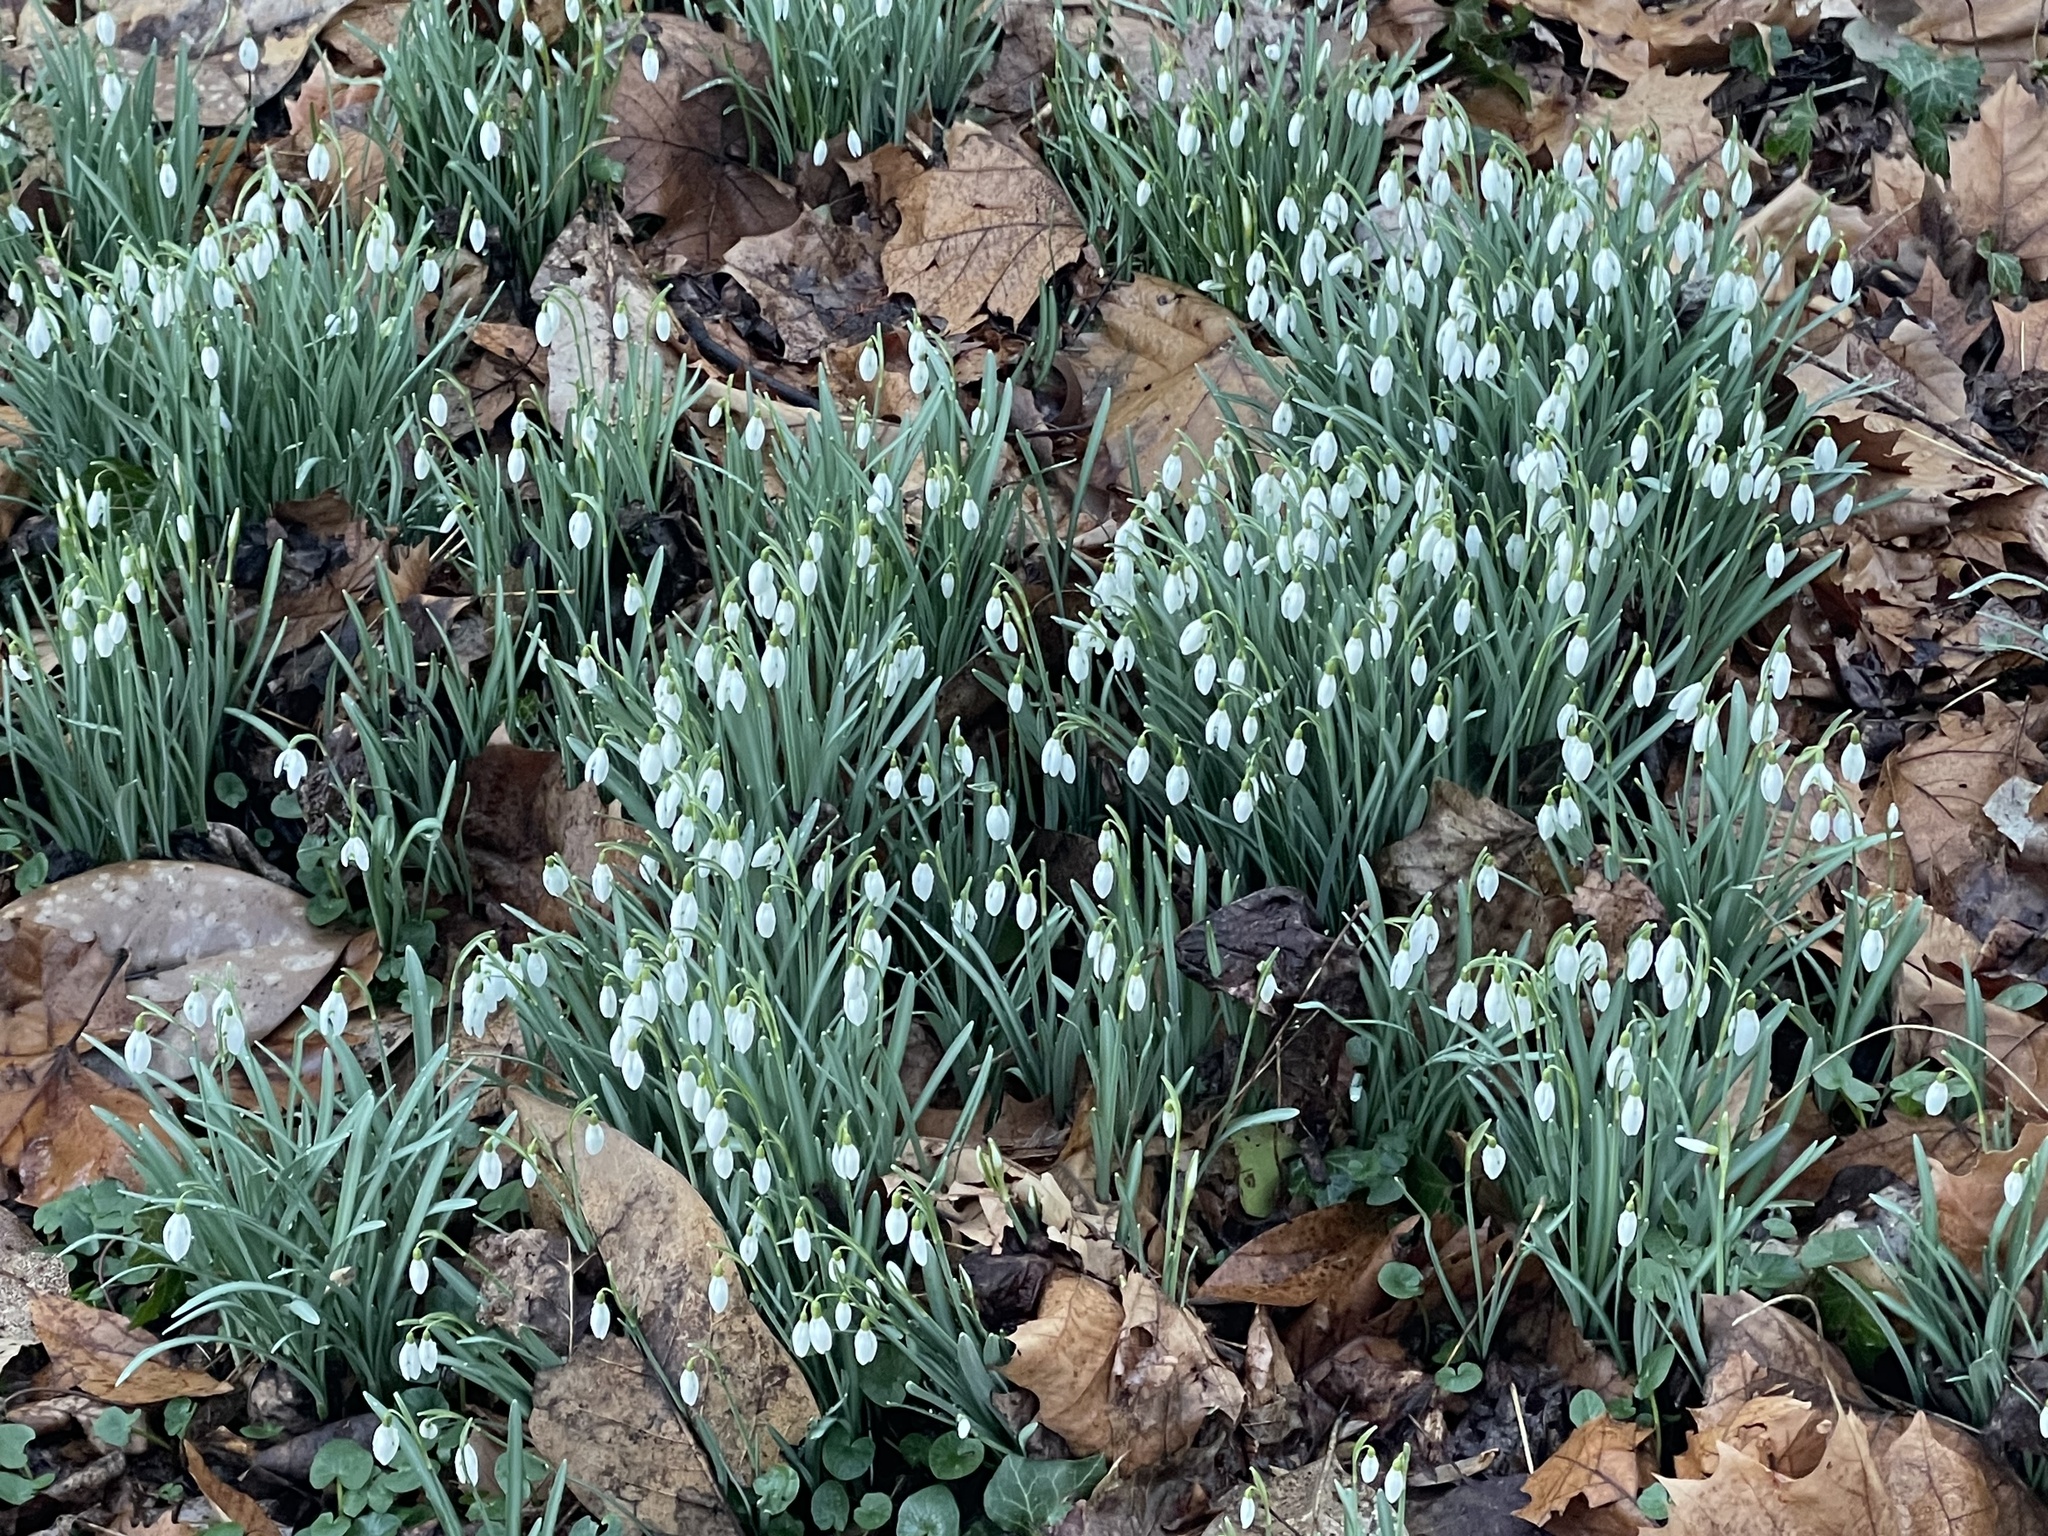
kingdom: Plantae
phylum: Tracheophyta
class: Liliopsida
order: Asparagales
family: Amaryllidaceae
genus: Galanthus
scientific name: Galanthus nivalis
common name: Snowdrop
